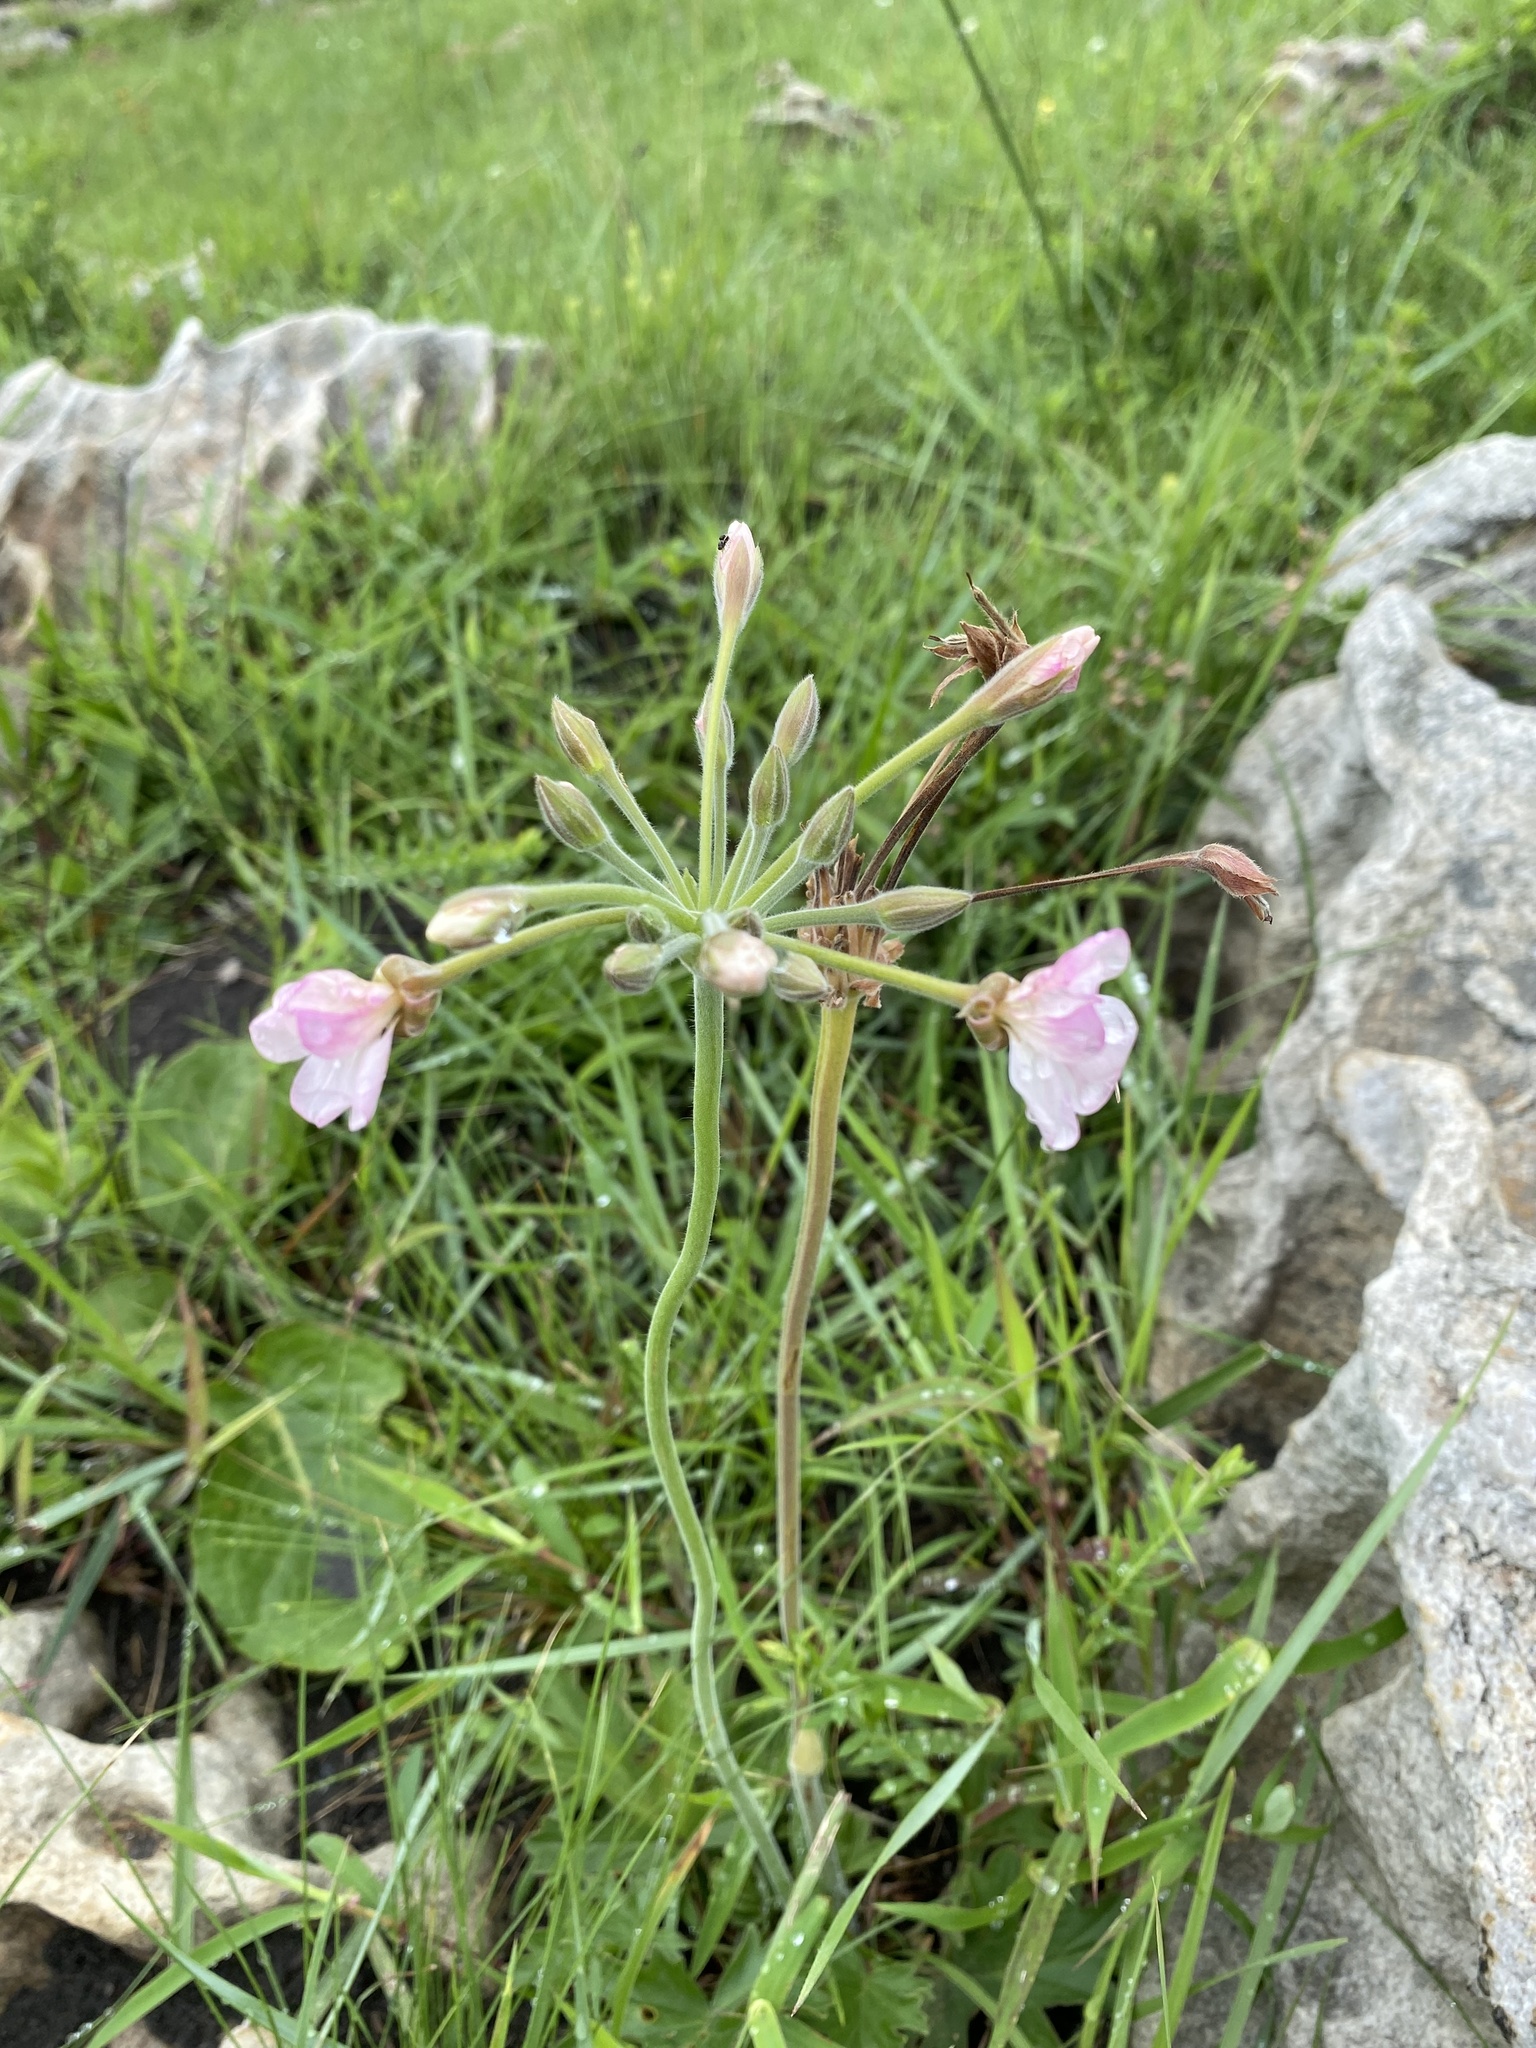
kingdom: Plantae
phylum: Tracheophyta
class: Magnoliopsida
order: Geraniales
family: Geraniaceae
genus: Pelargonium
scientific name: Pelargonium luridum
